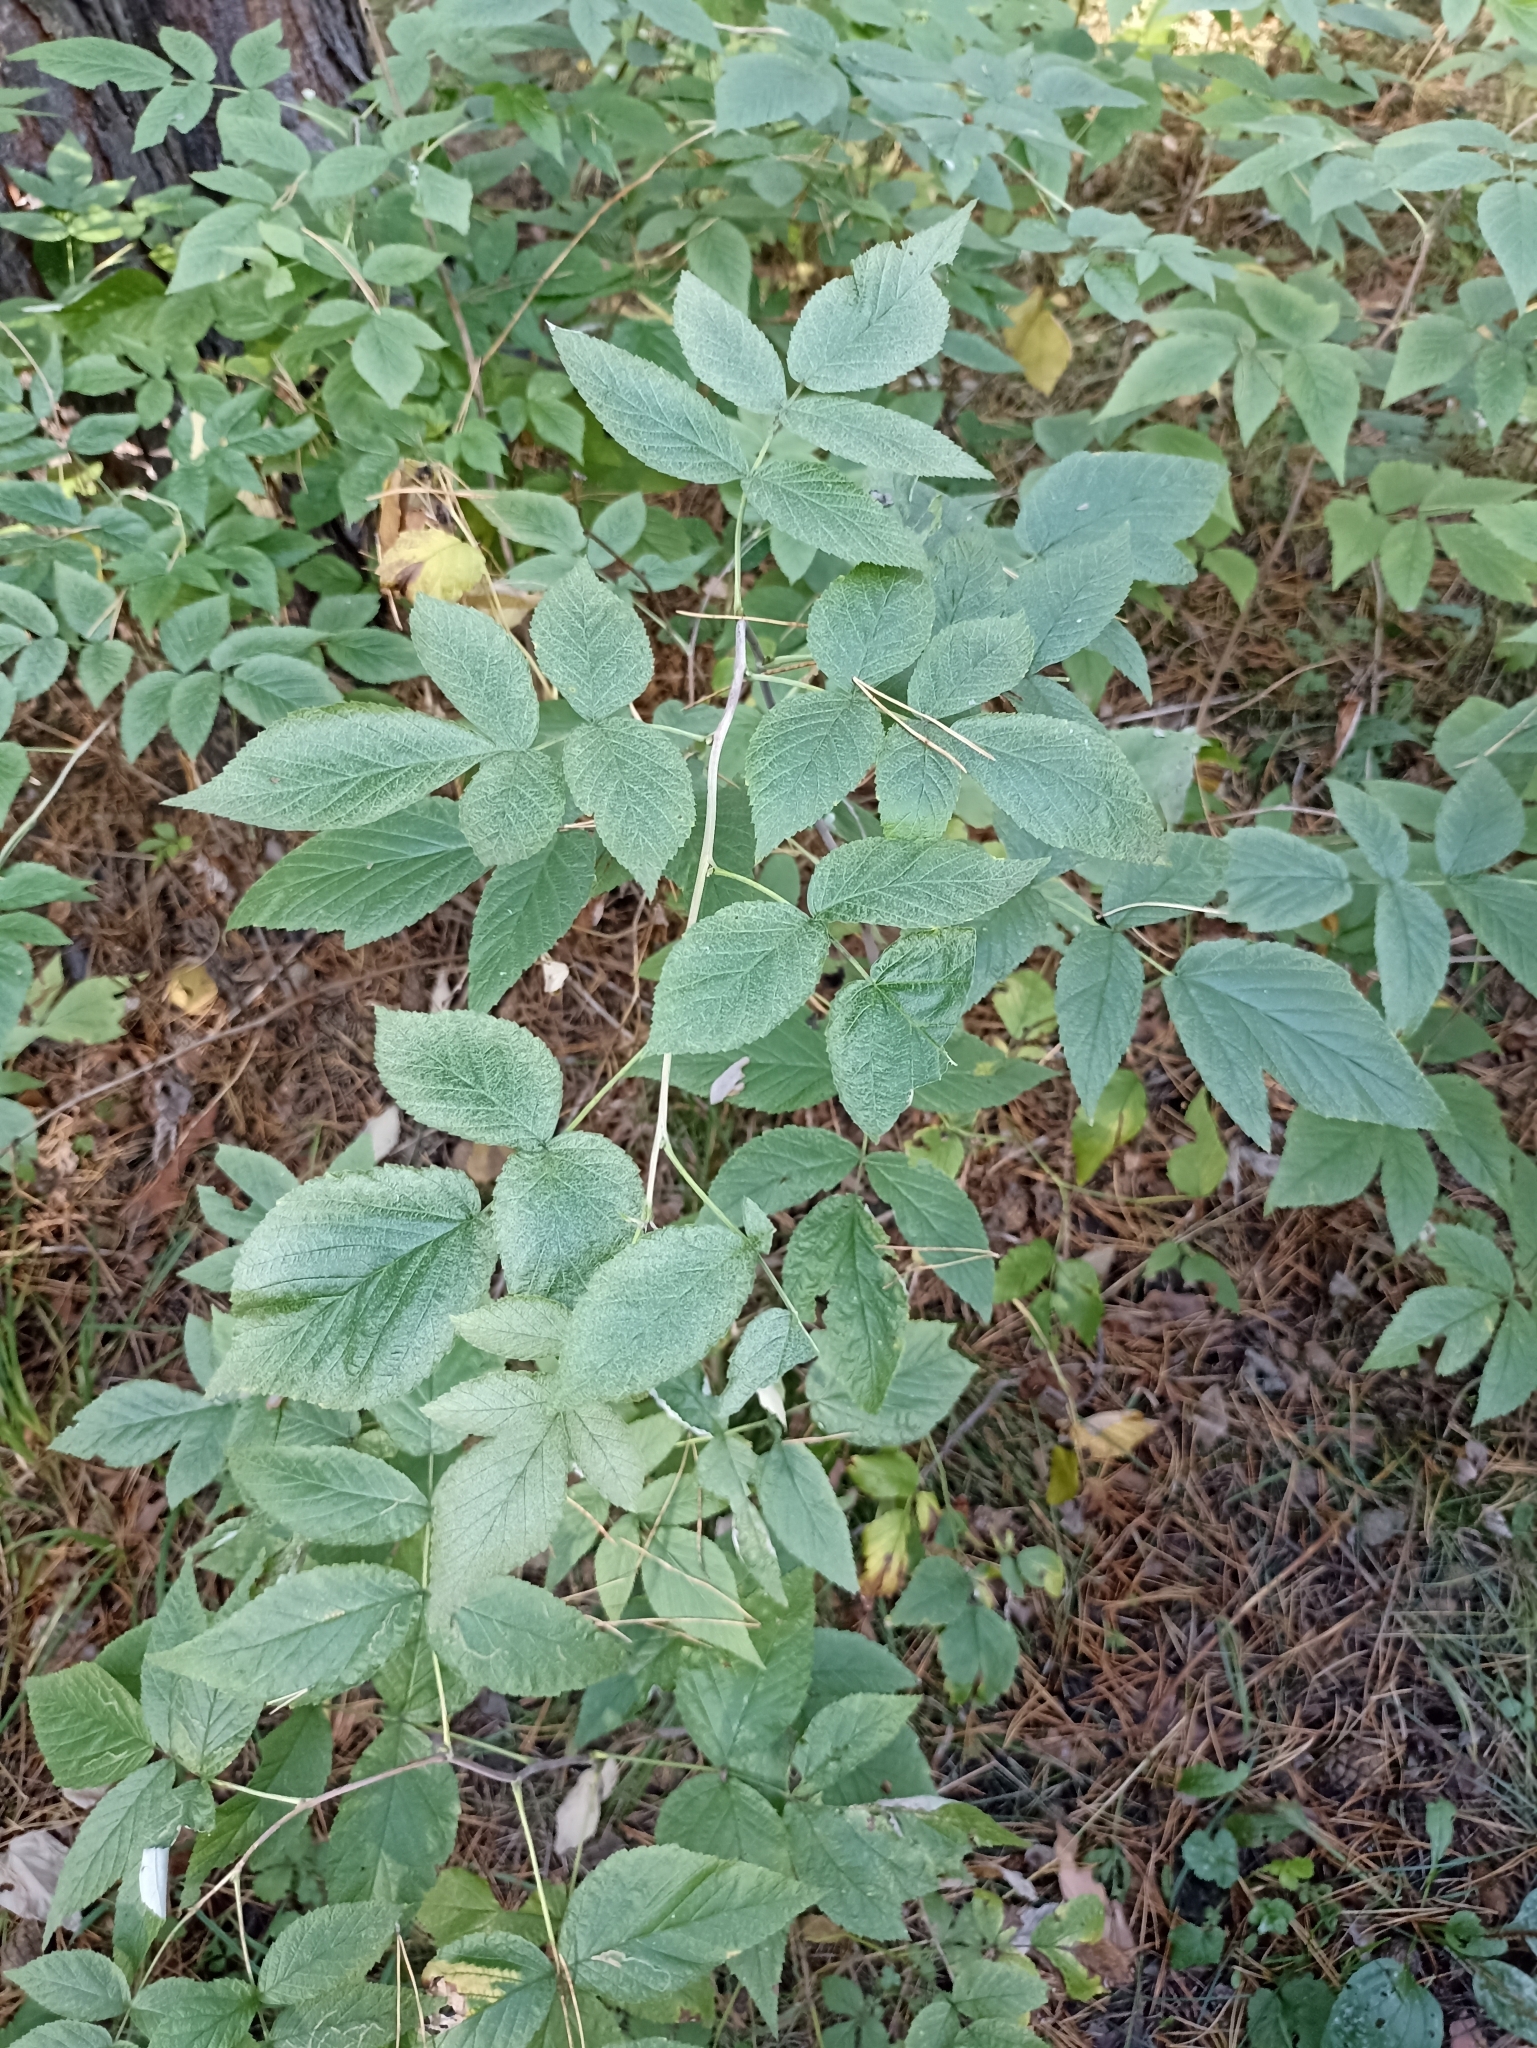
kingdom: Plantae
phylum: Tracheophyta
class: Magnoliopsida
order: Rosales
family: Rosaceae
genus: Rubus
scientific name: Rubus idaeus
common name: Raspberry
